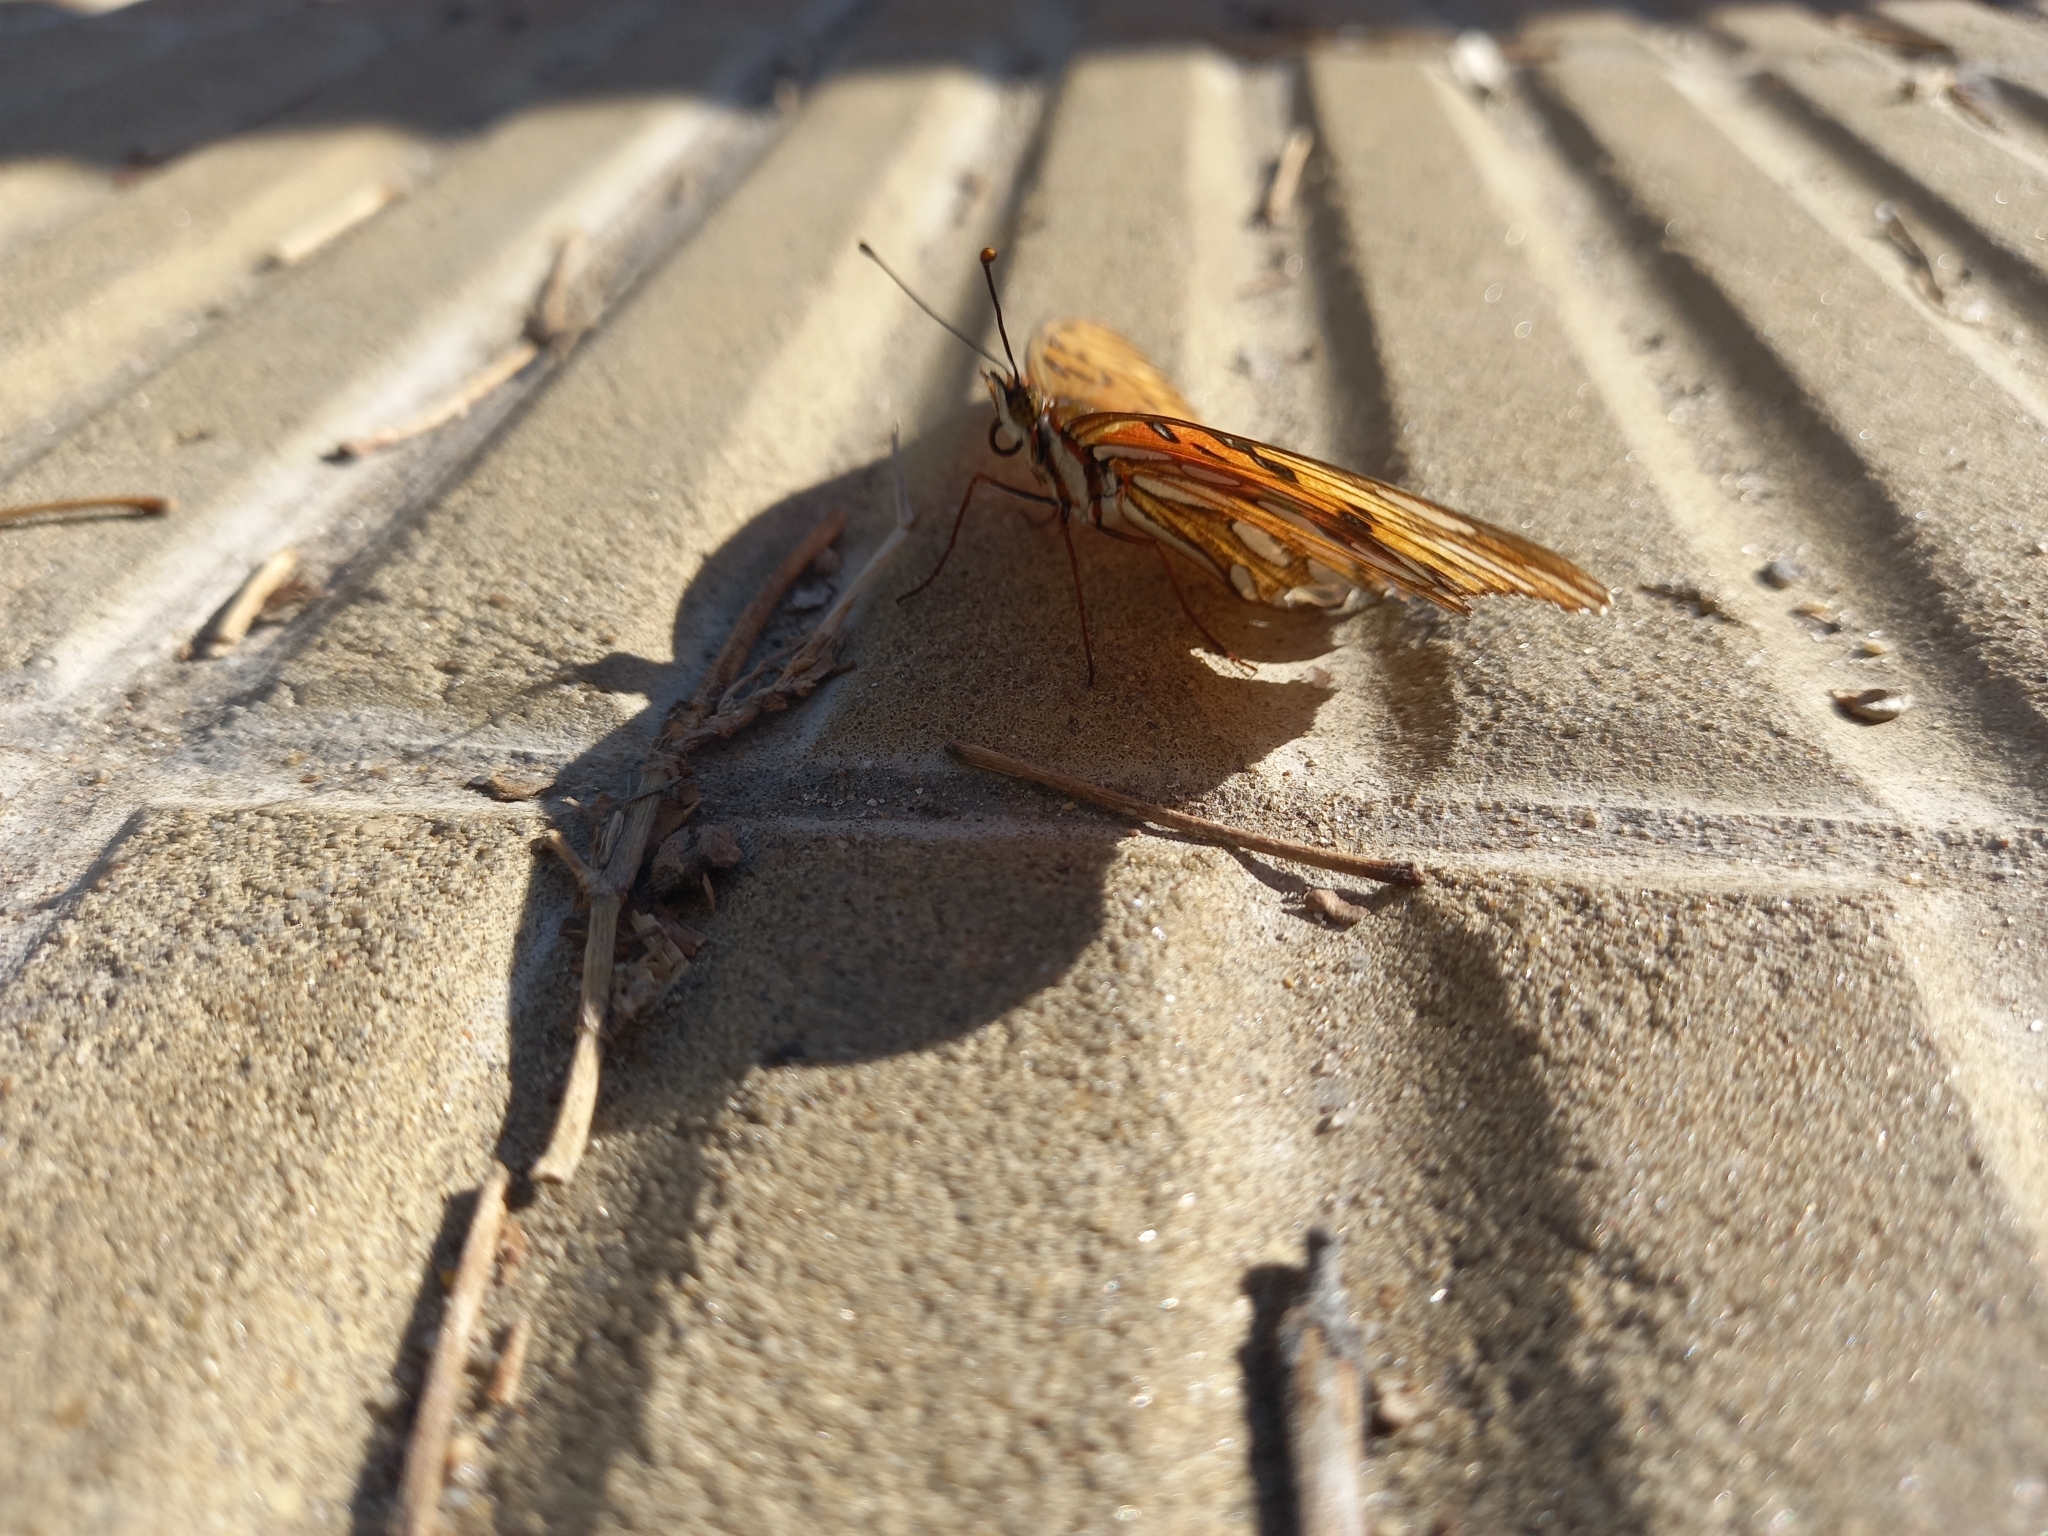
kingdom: Animalia
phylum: Arthropoda
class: Insecta
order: Lepidoptera
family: Nymphalidae
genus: Dione
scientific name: Dione vanillae
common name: Gulf fritillary
